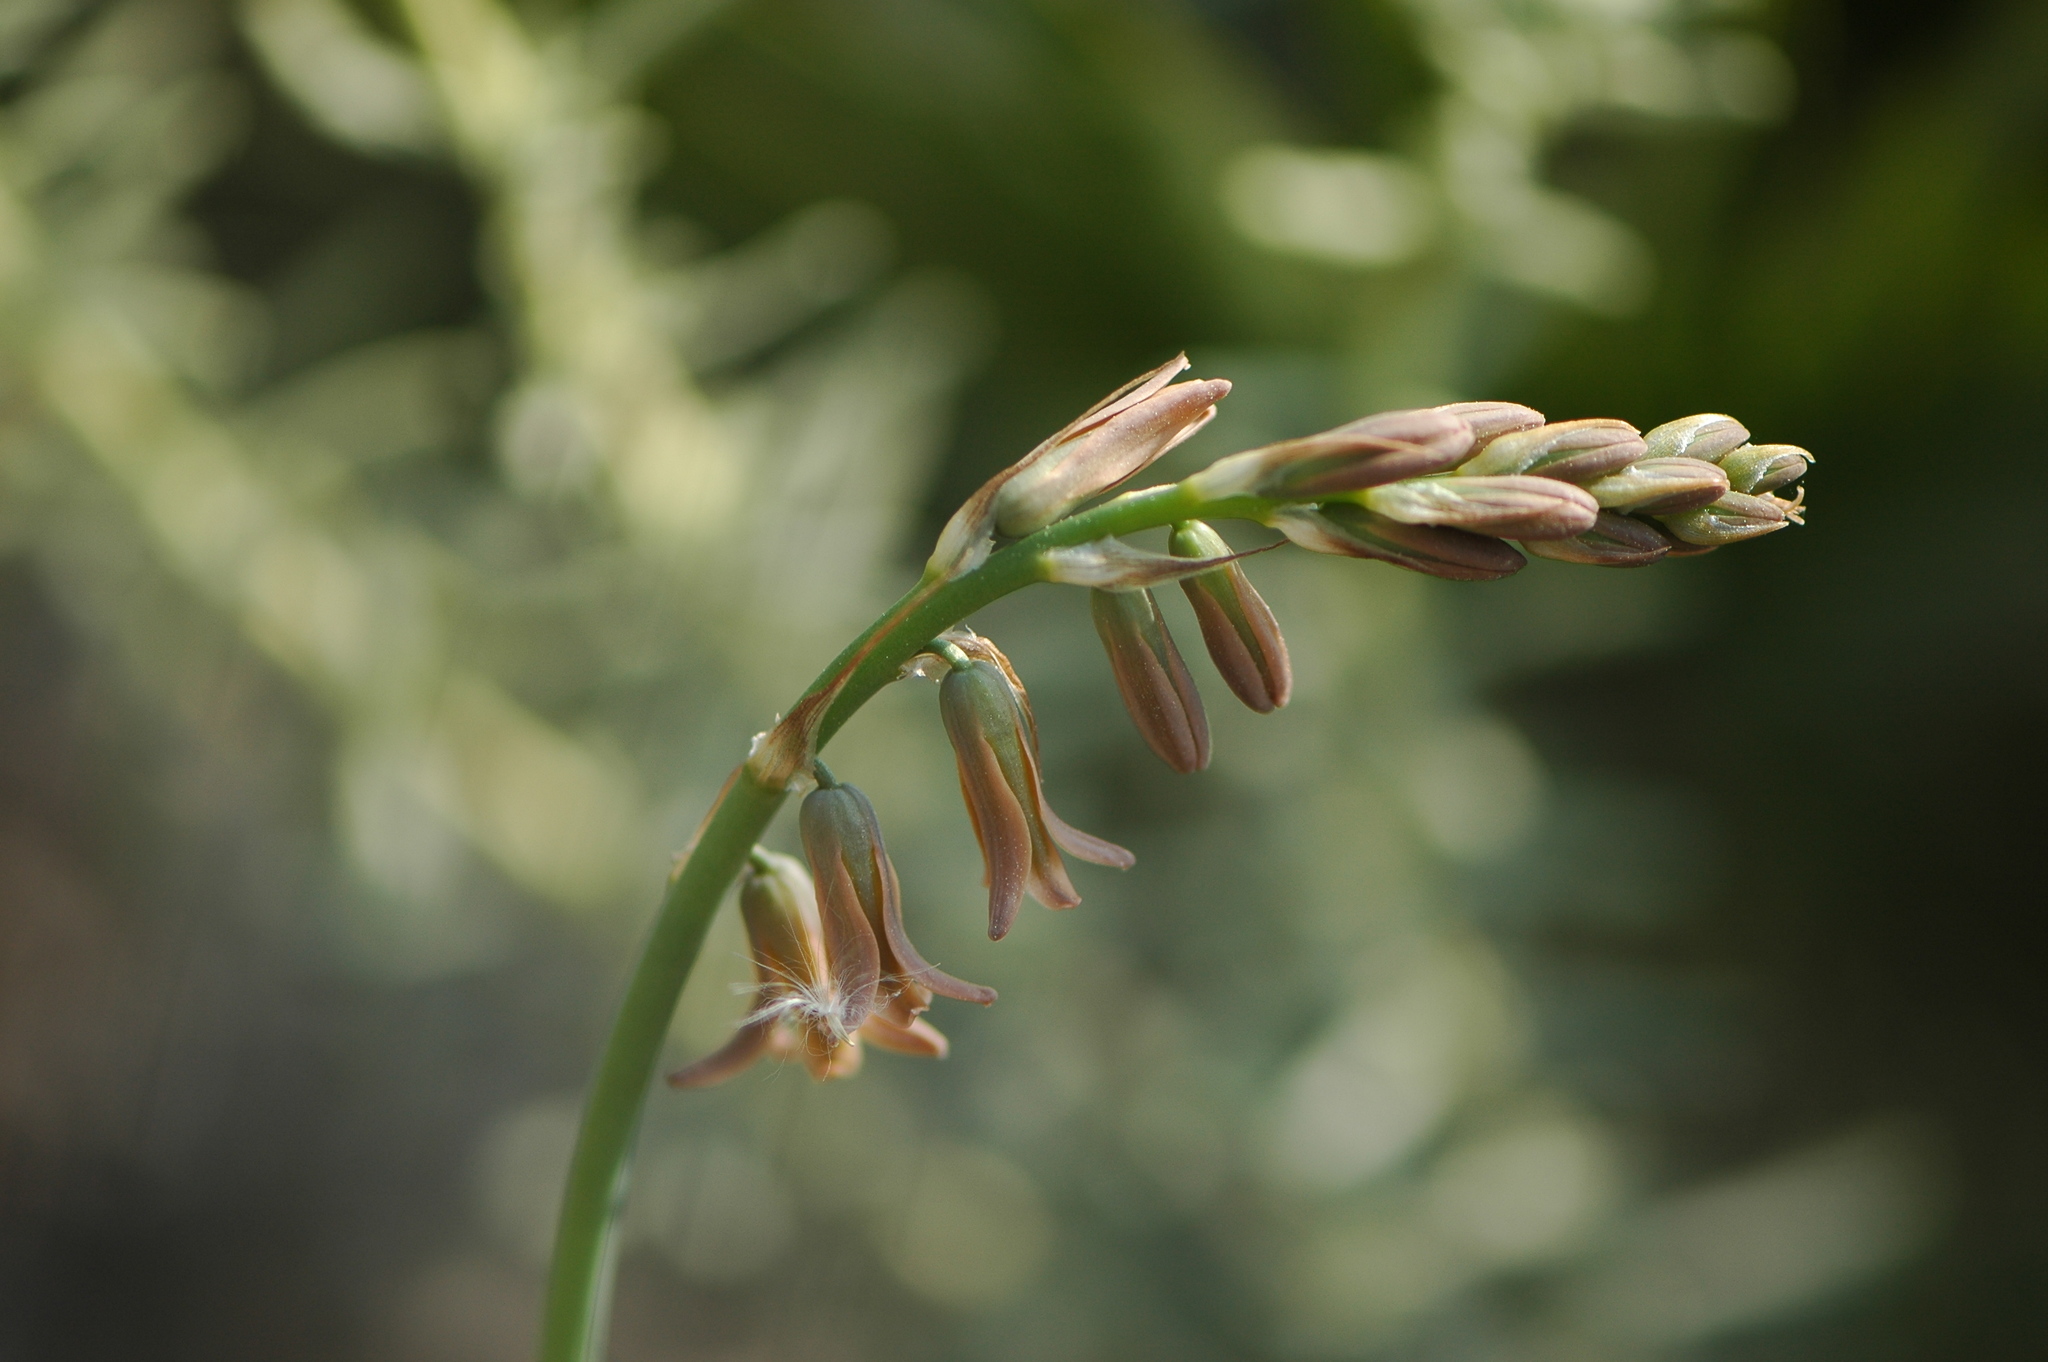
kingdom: Plantae
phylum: Tracheophyta
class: Liliopsida
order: Asparagales
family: Asparagaceae
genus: Dipcadi
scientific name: Dipcadi serotinum
